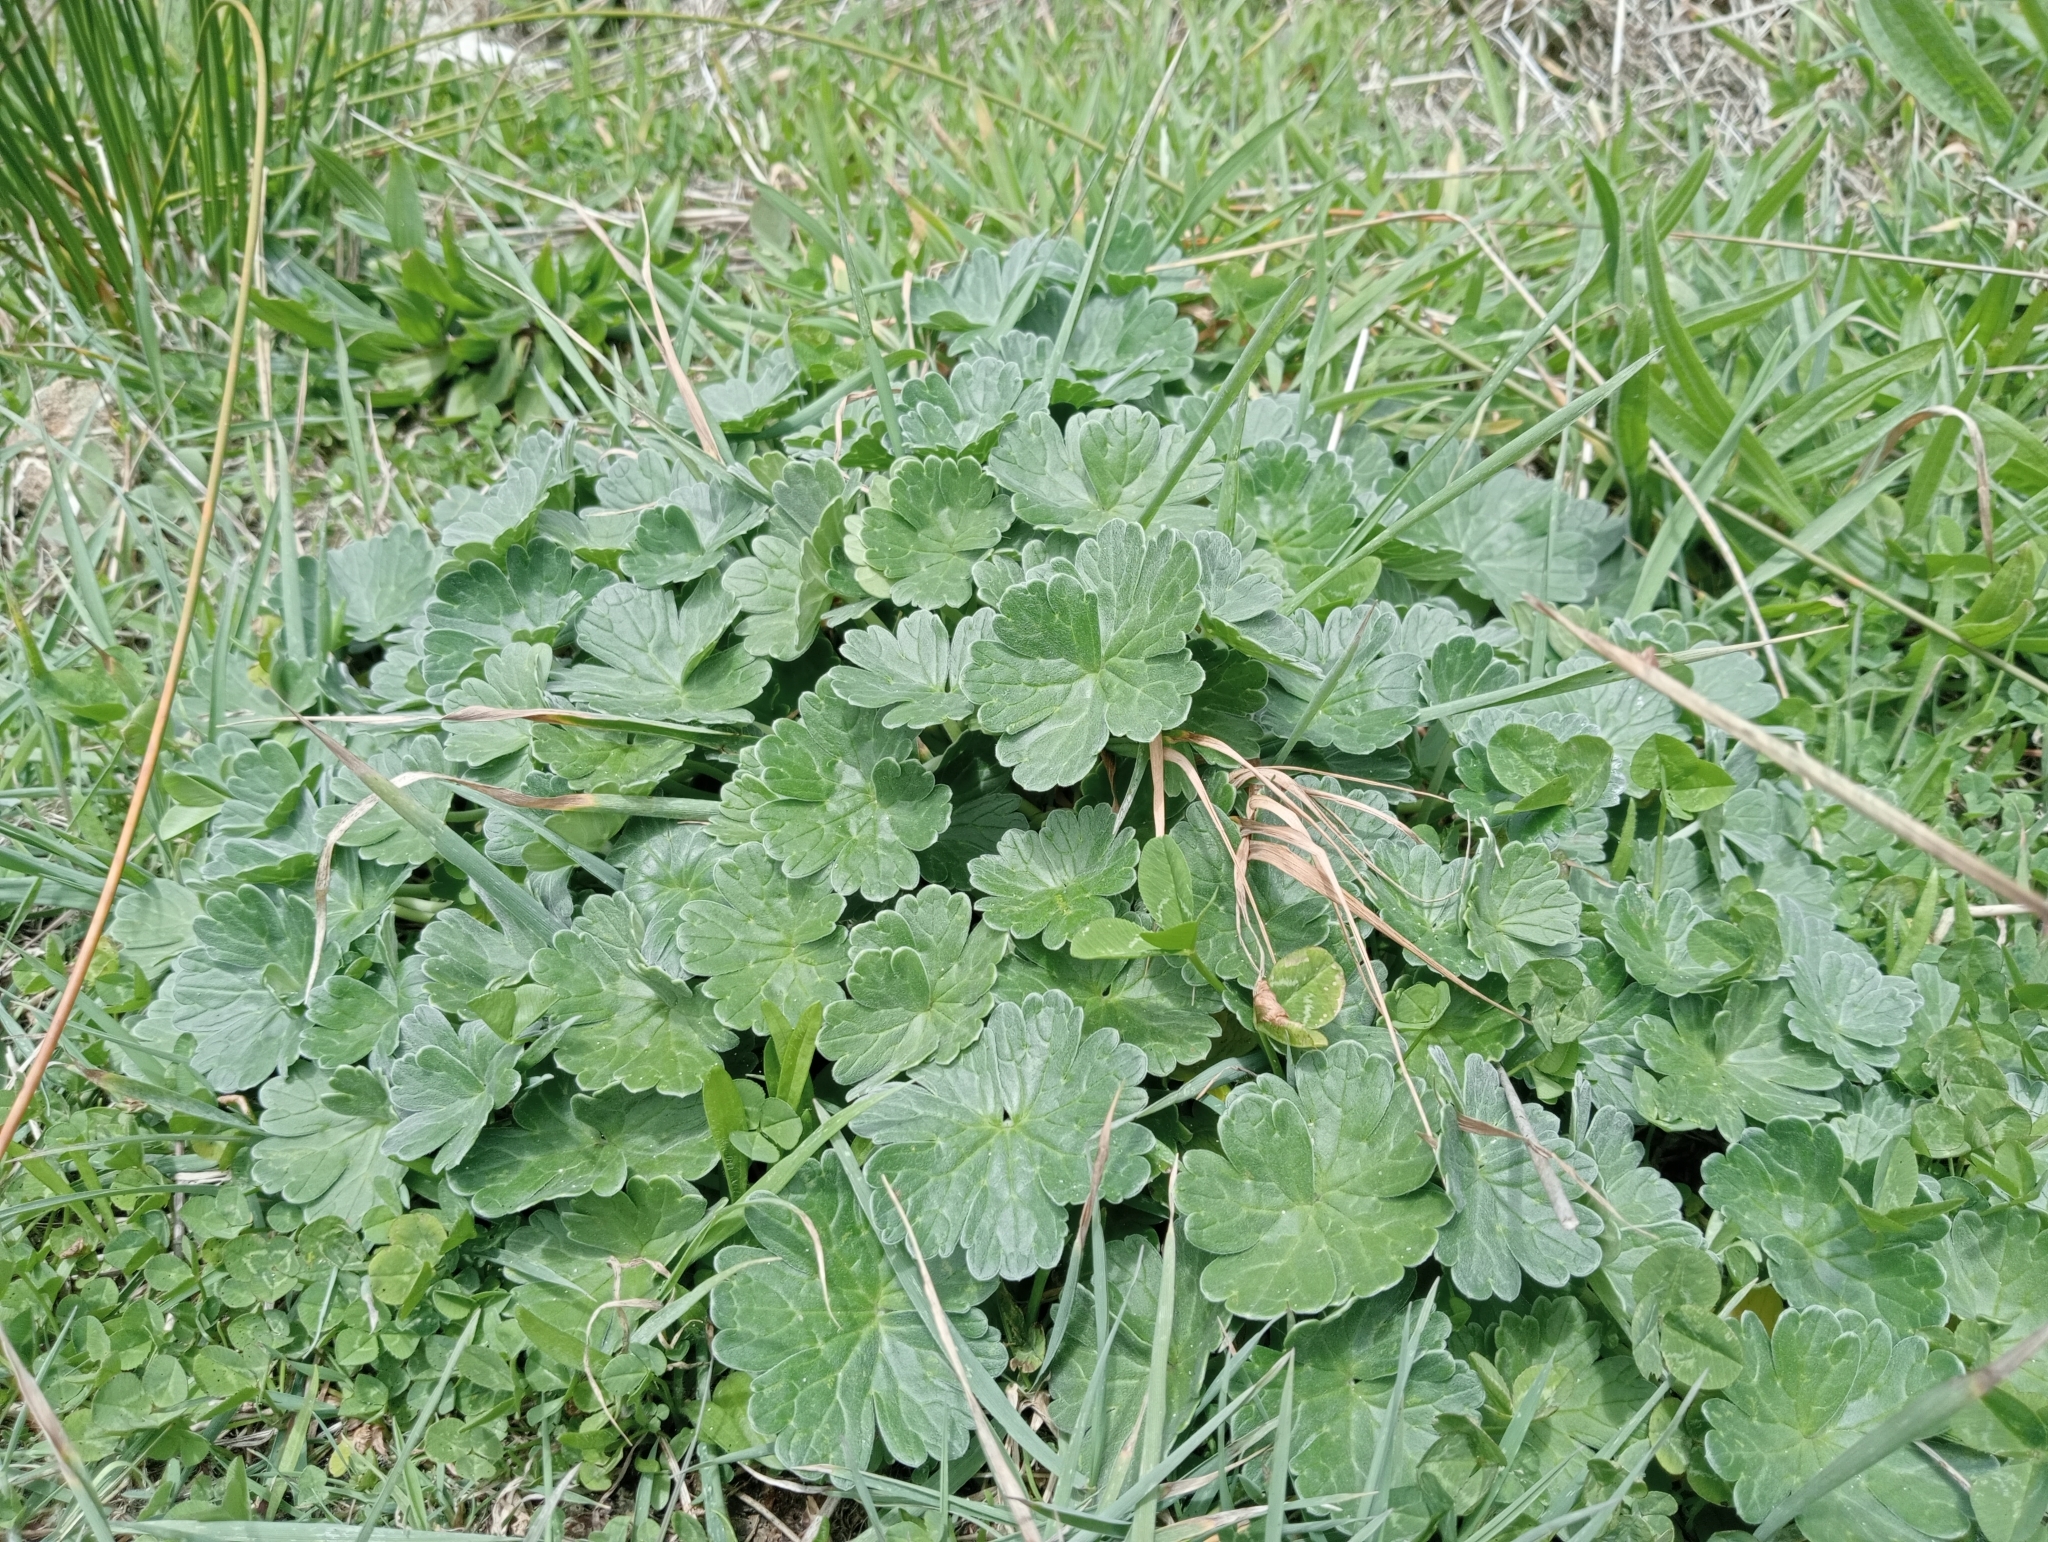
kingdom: Plantae
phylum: Tracheophyta
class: Magnoliopsida
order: Geraniales
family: Geraniaceae
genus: Geranium
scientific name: Geranium traversii
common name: Cranesbill
